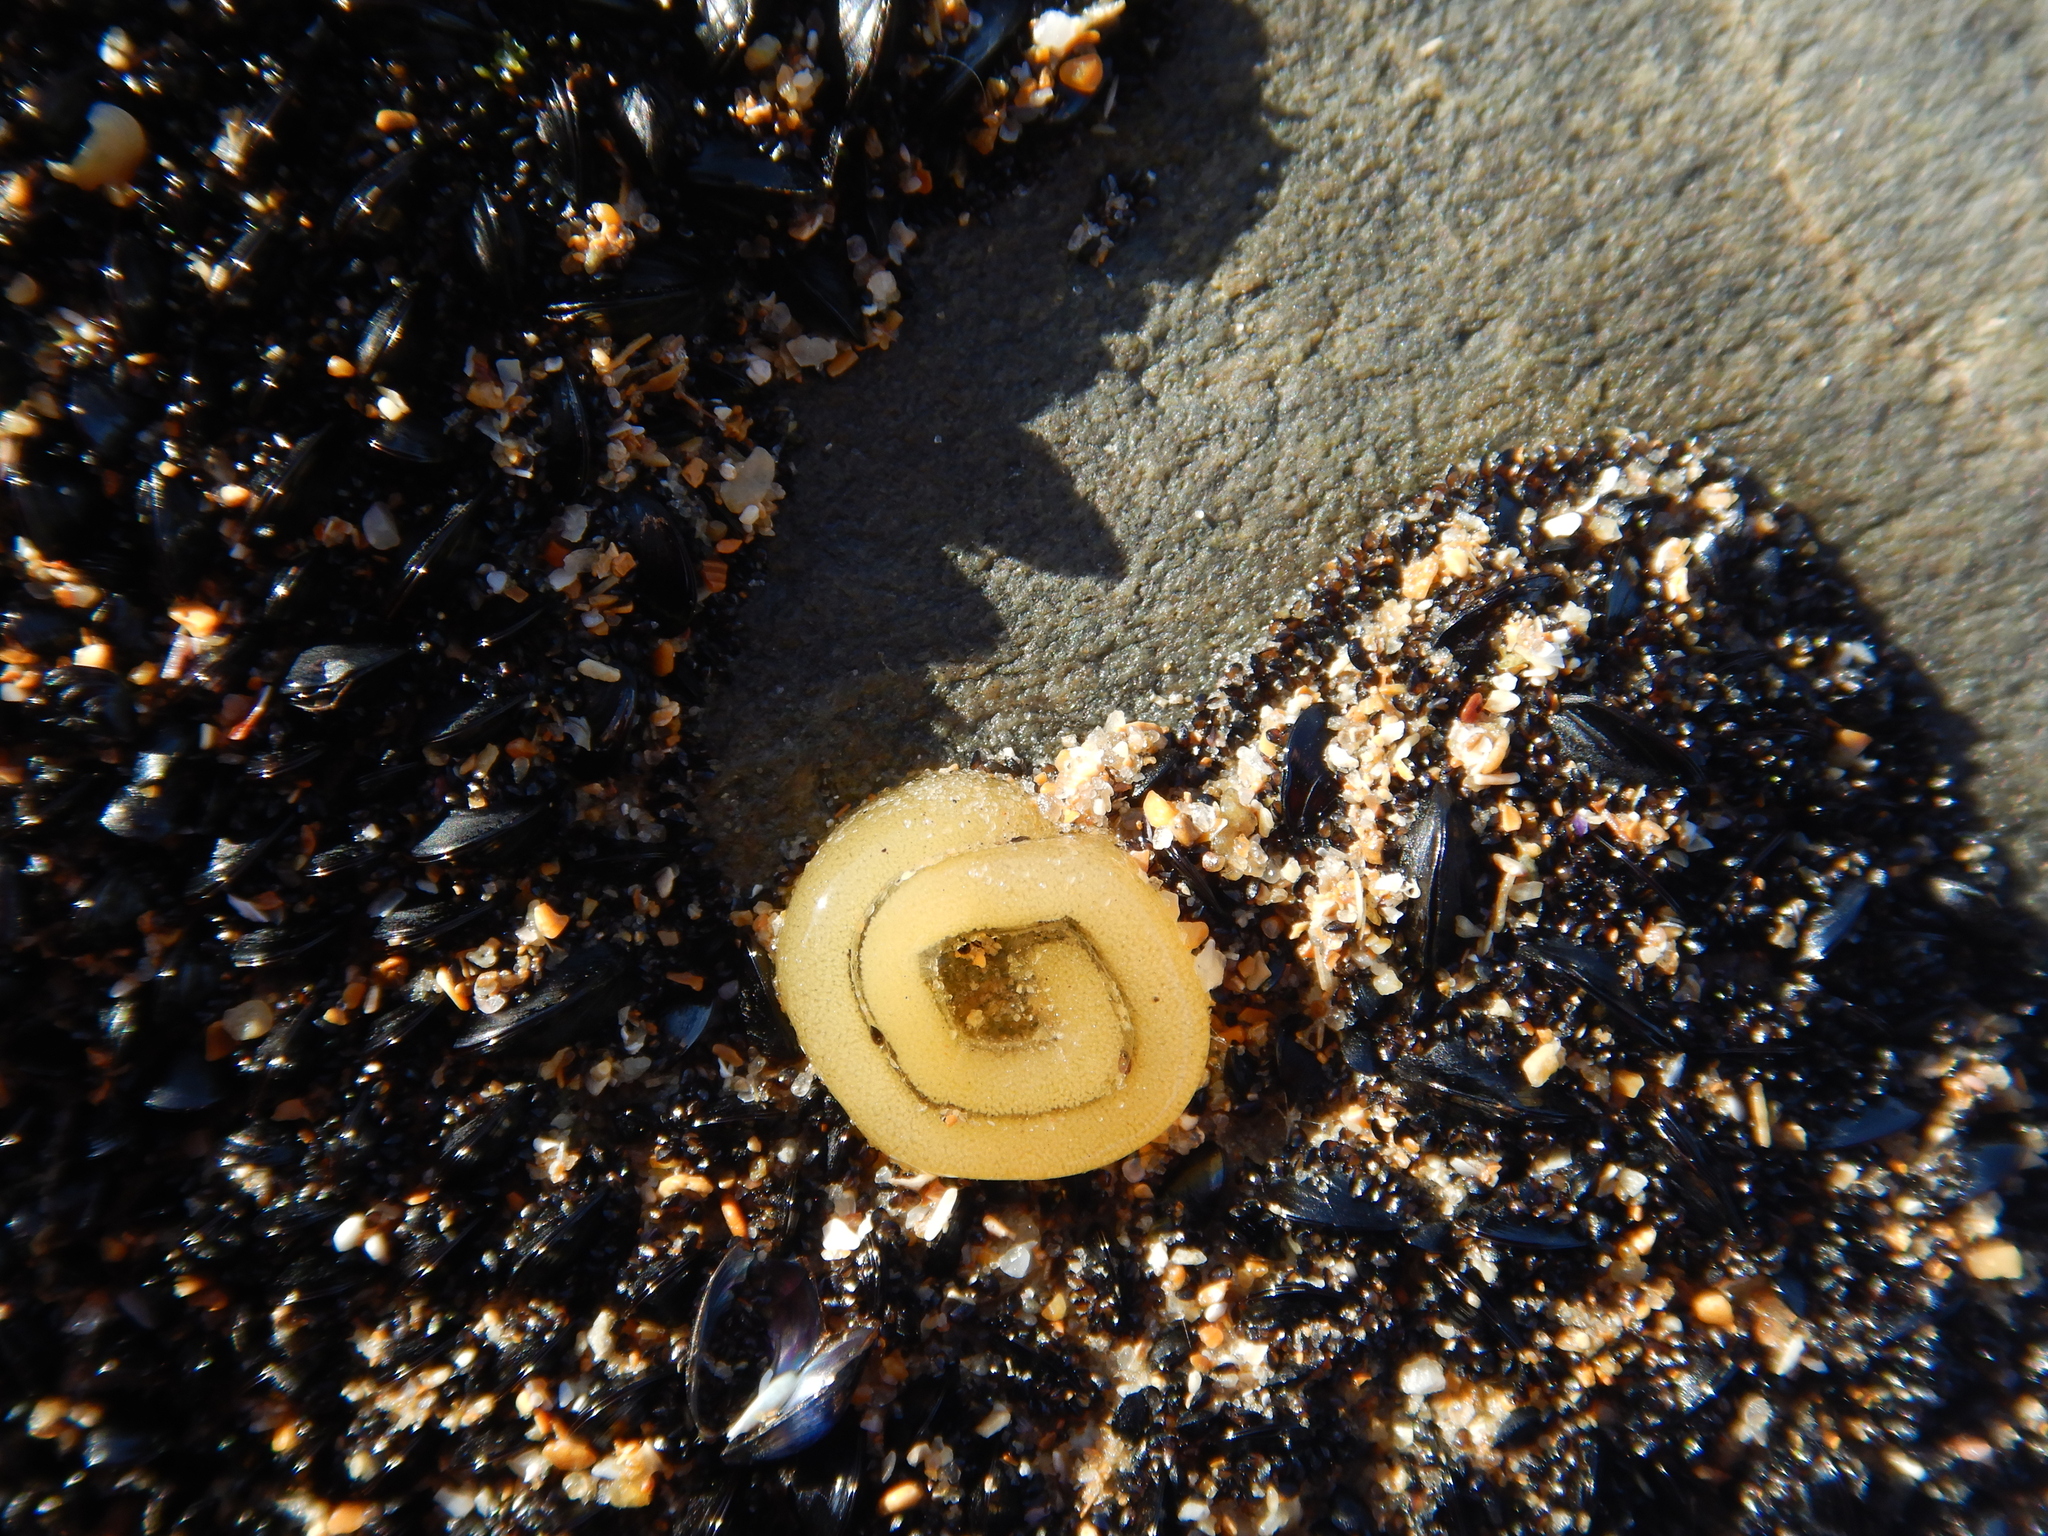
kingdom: Animalia
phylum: Mollusca
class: Gastropoda
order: Siphonariida
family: Siphonariidae
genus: Siphonaria
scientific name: Siphonaria diemenensis
